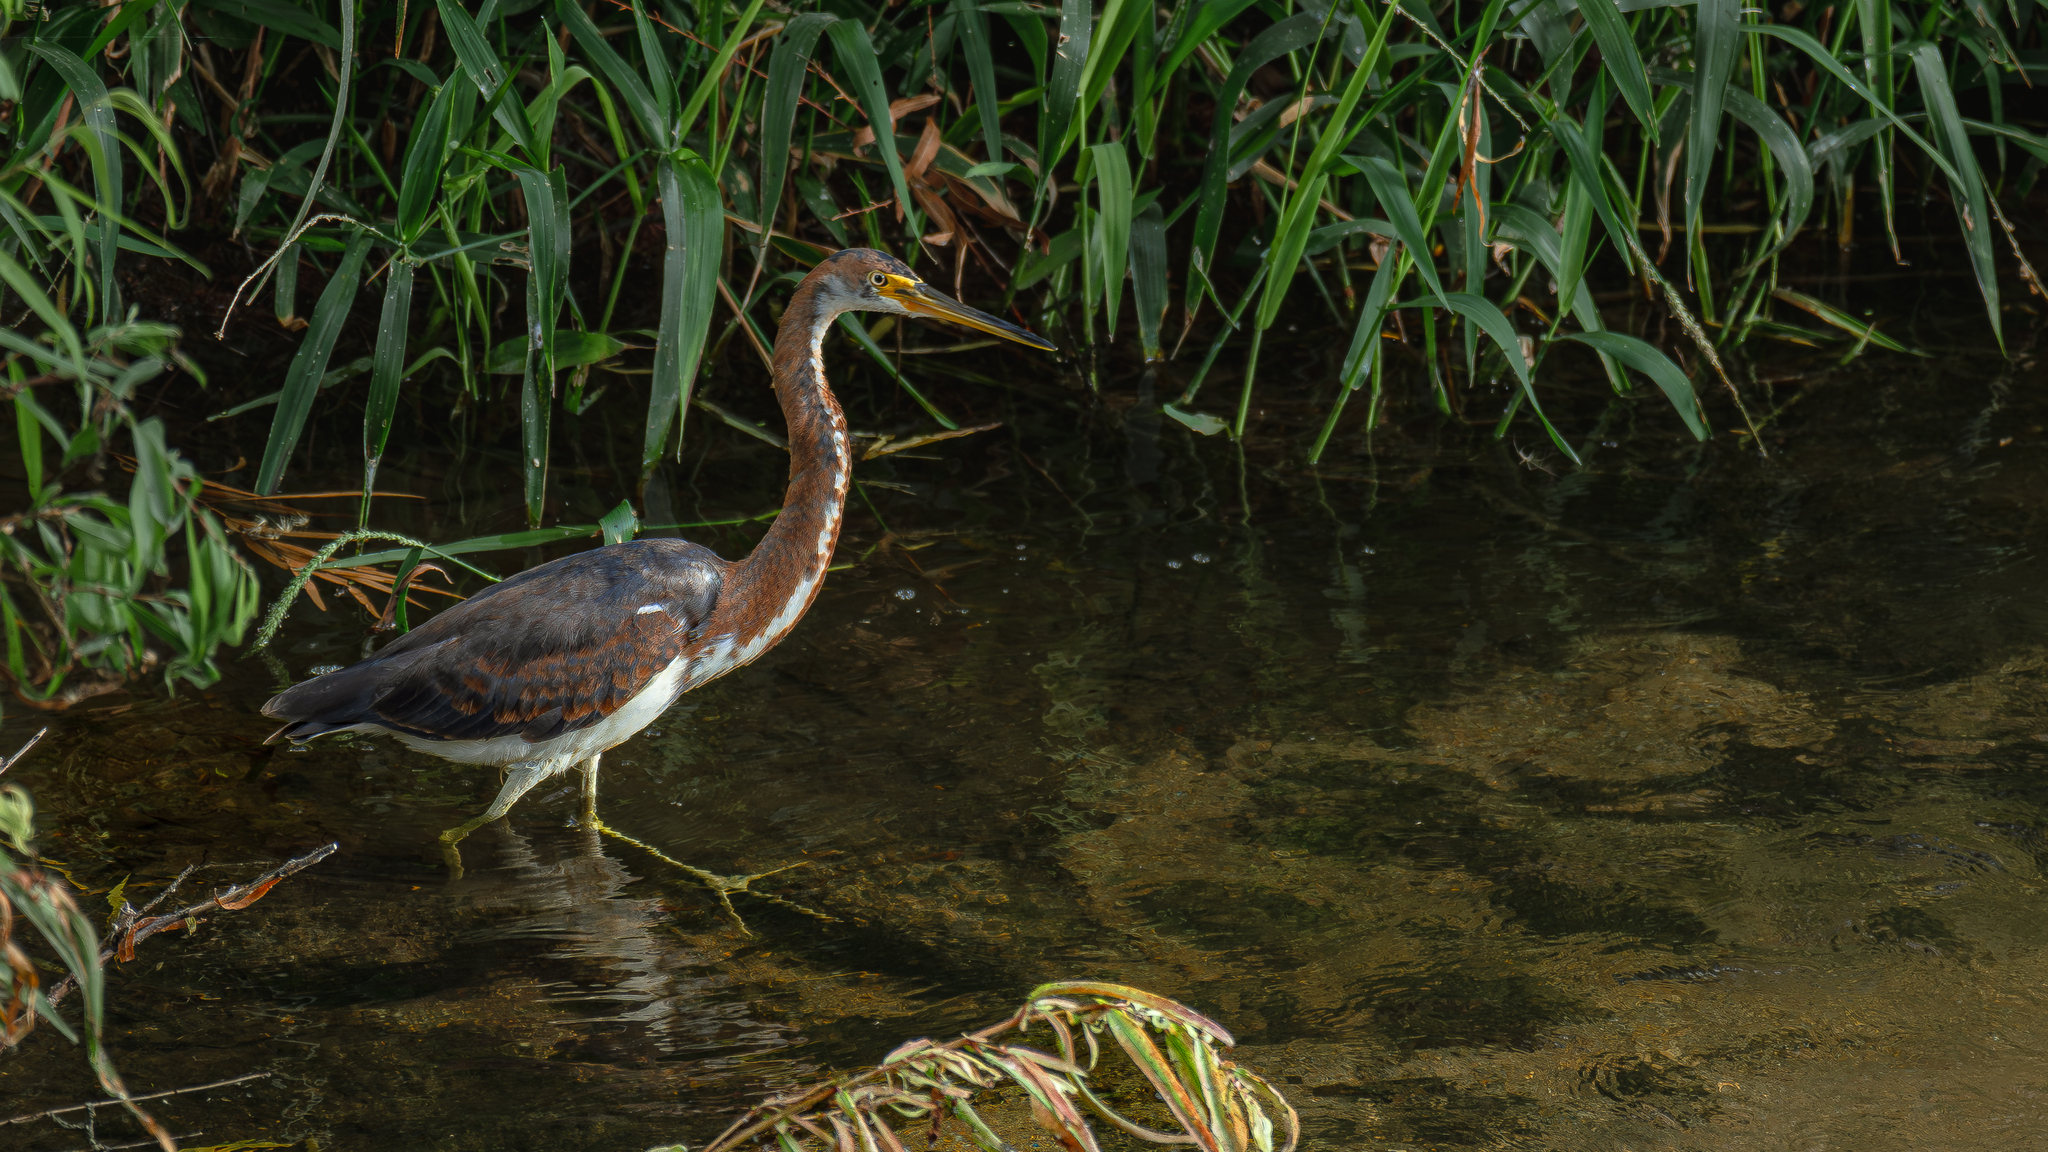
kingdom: Animalia
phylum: Chordata
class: Aves
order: Pelecaniformes
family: Ardeidae
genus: Egretta
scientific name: Egretta tricolor
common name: Tricolored heron
